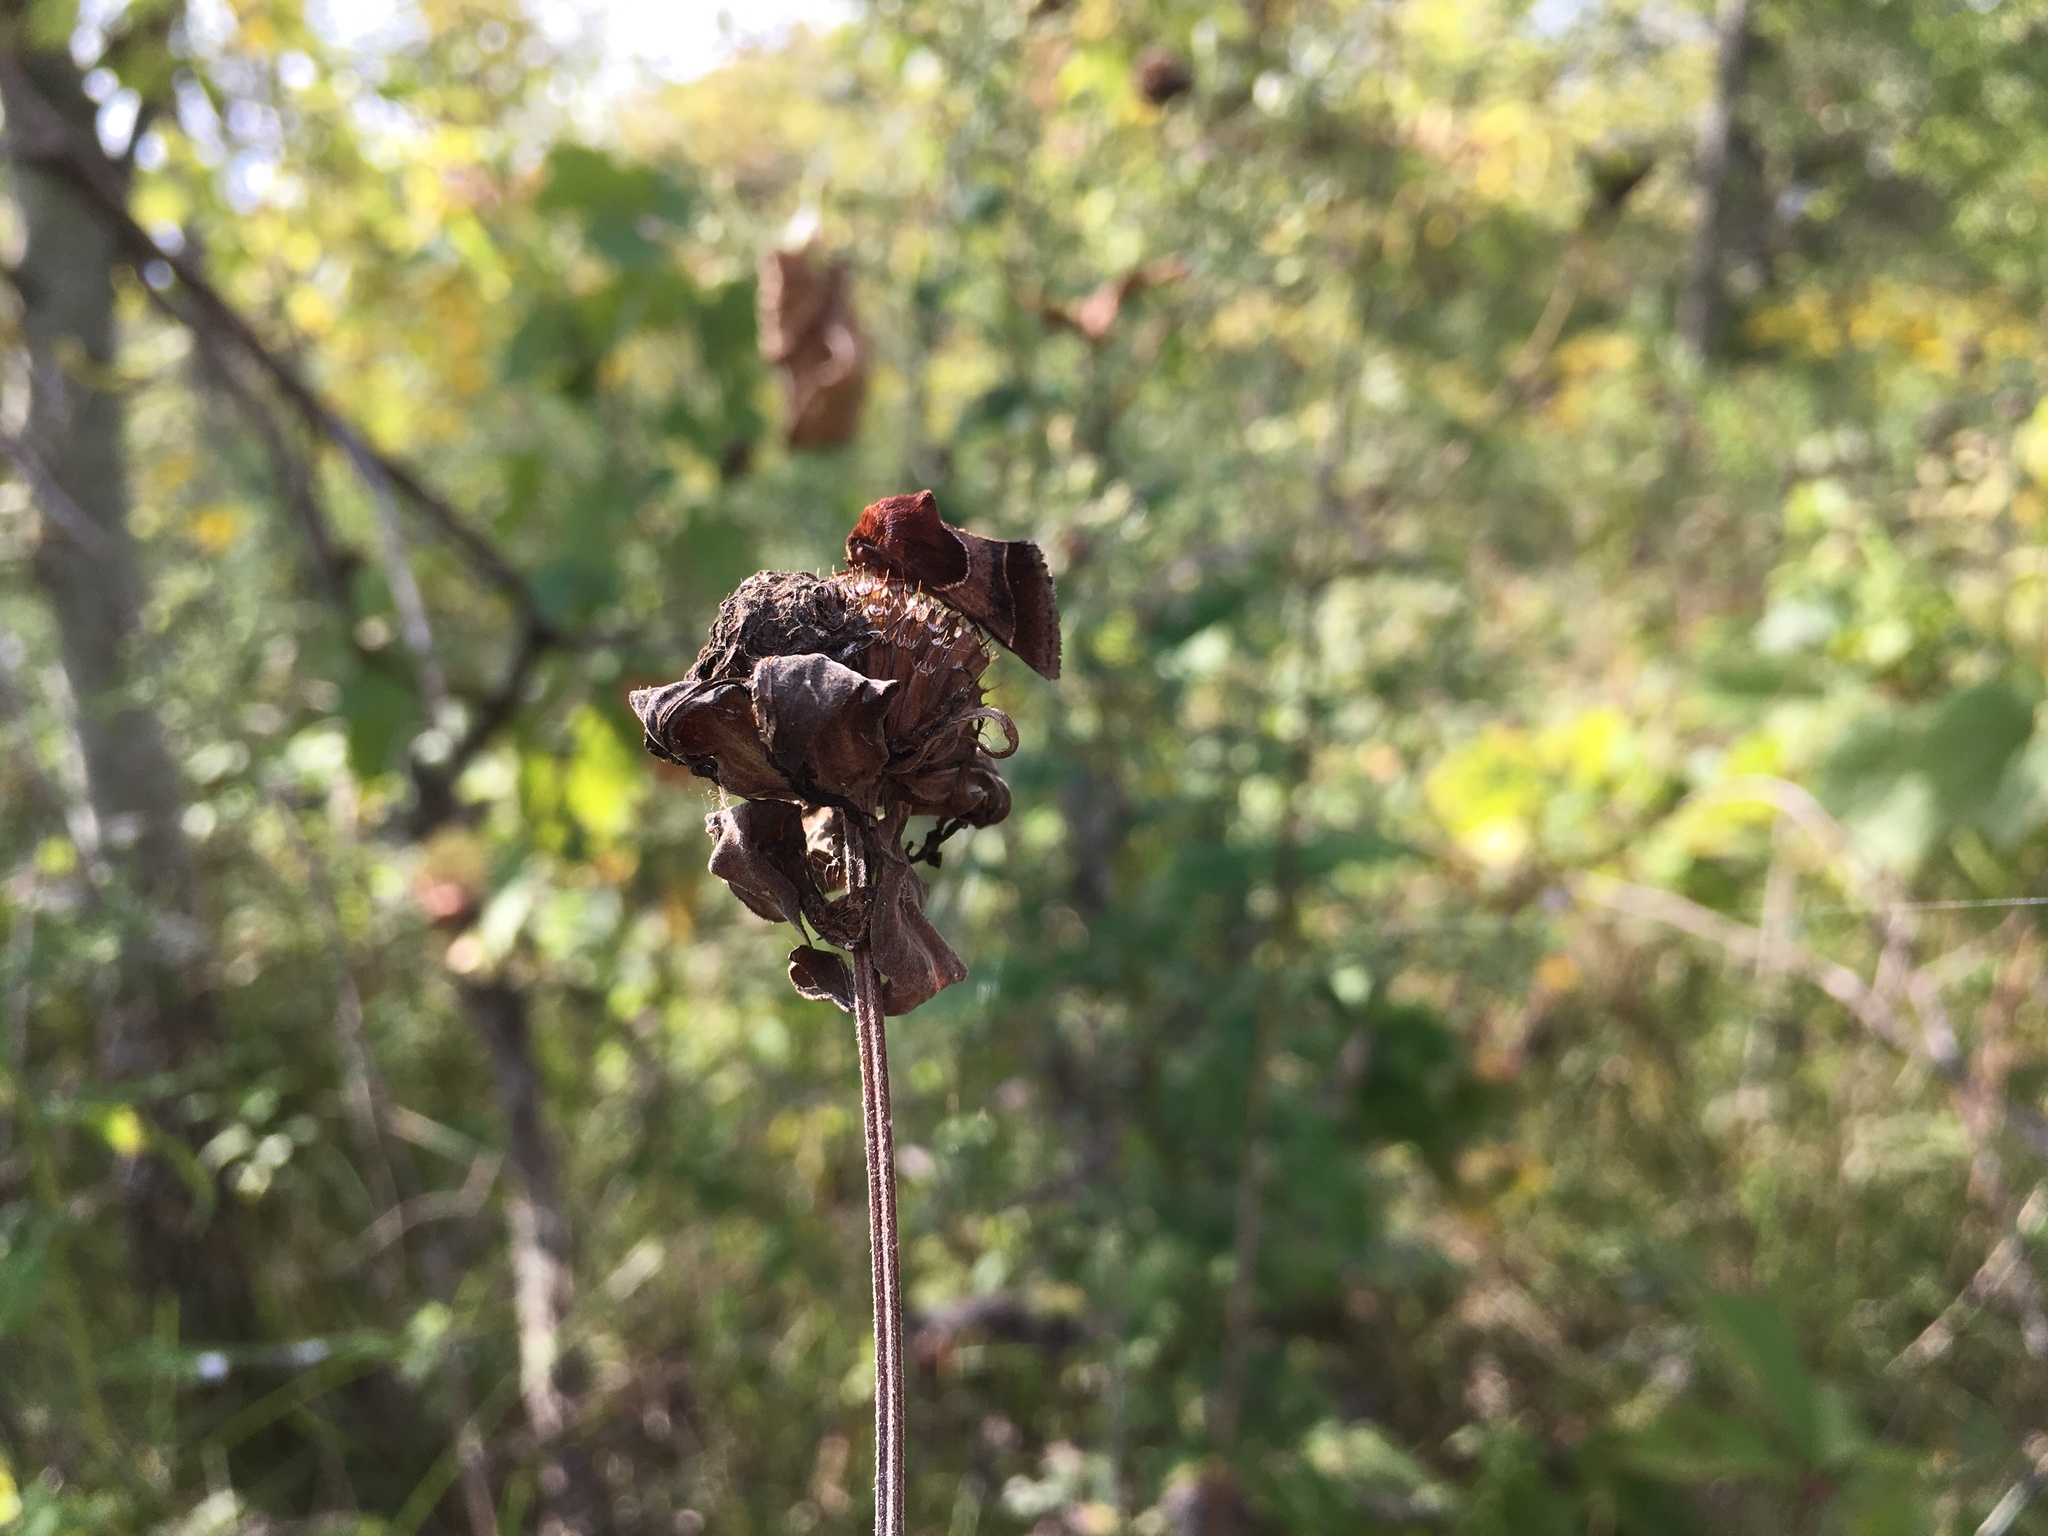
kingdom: Animalia
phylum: Arthropoda
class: Insecta
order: Lepidoptera
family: Noctuidae
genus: Schinia
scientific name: Schinia arcigera
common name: Arcigera flower moth
